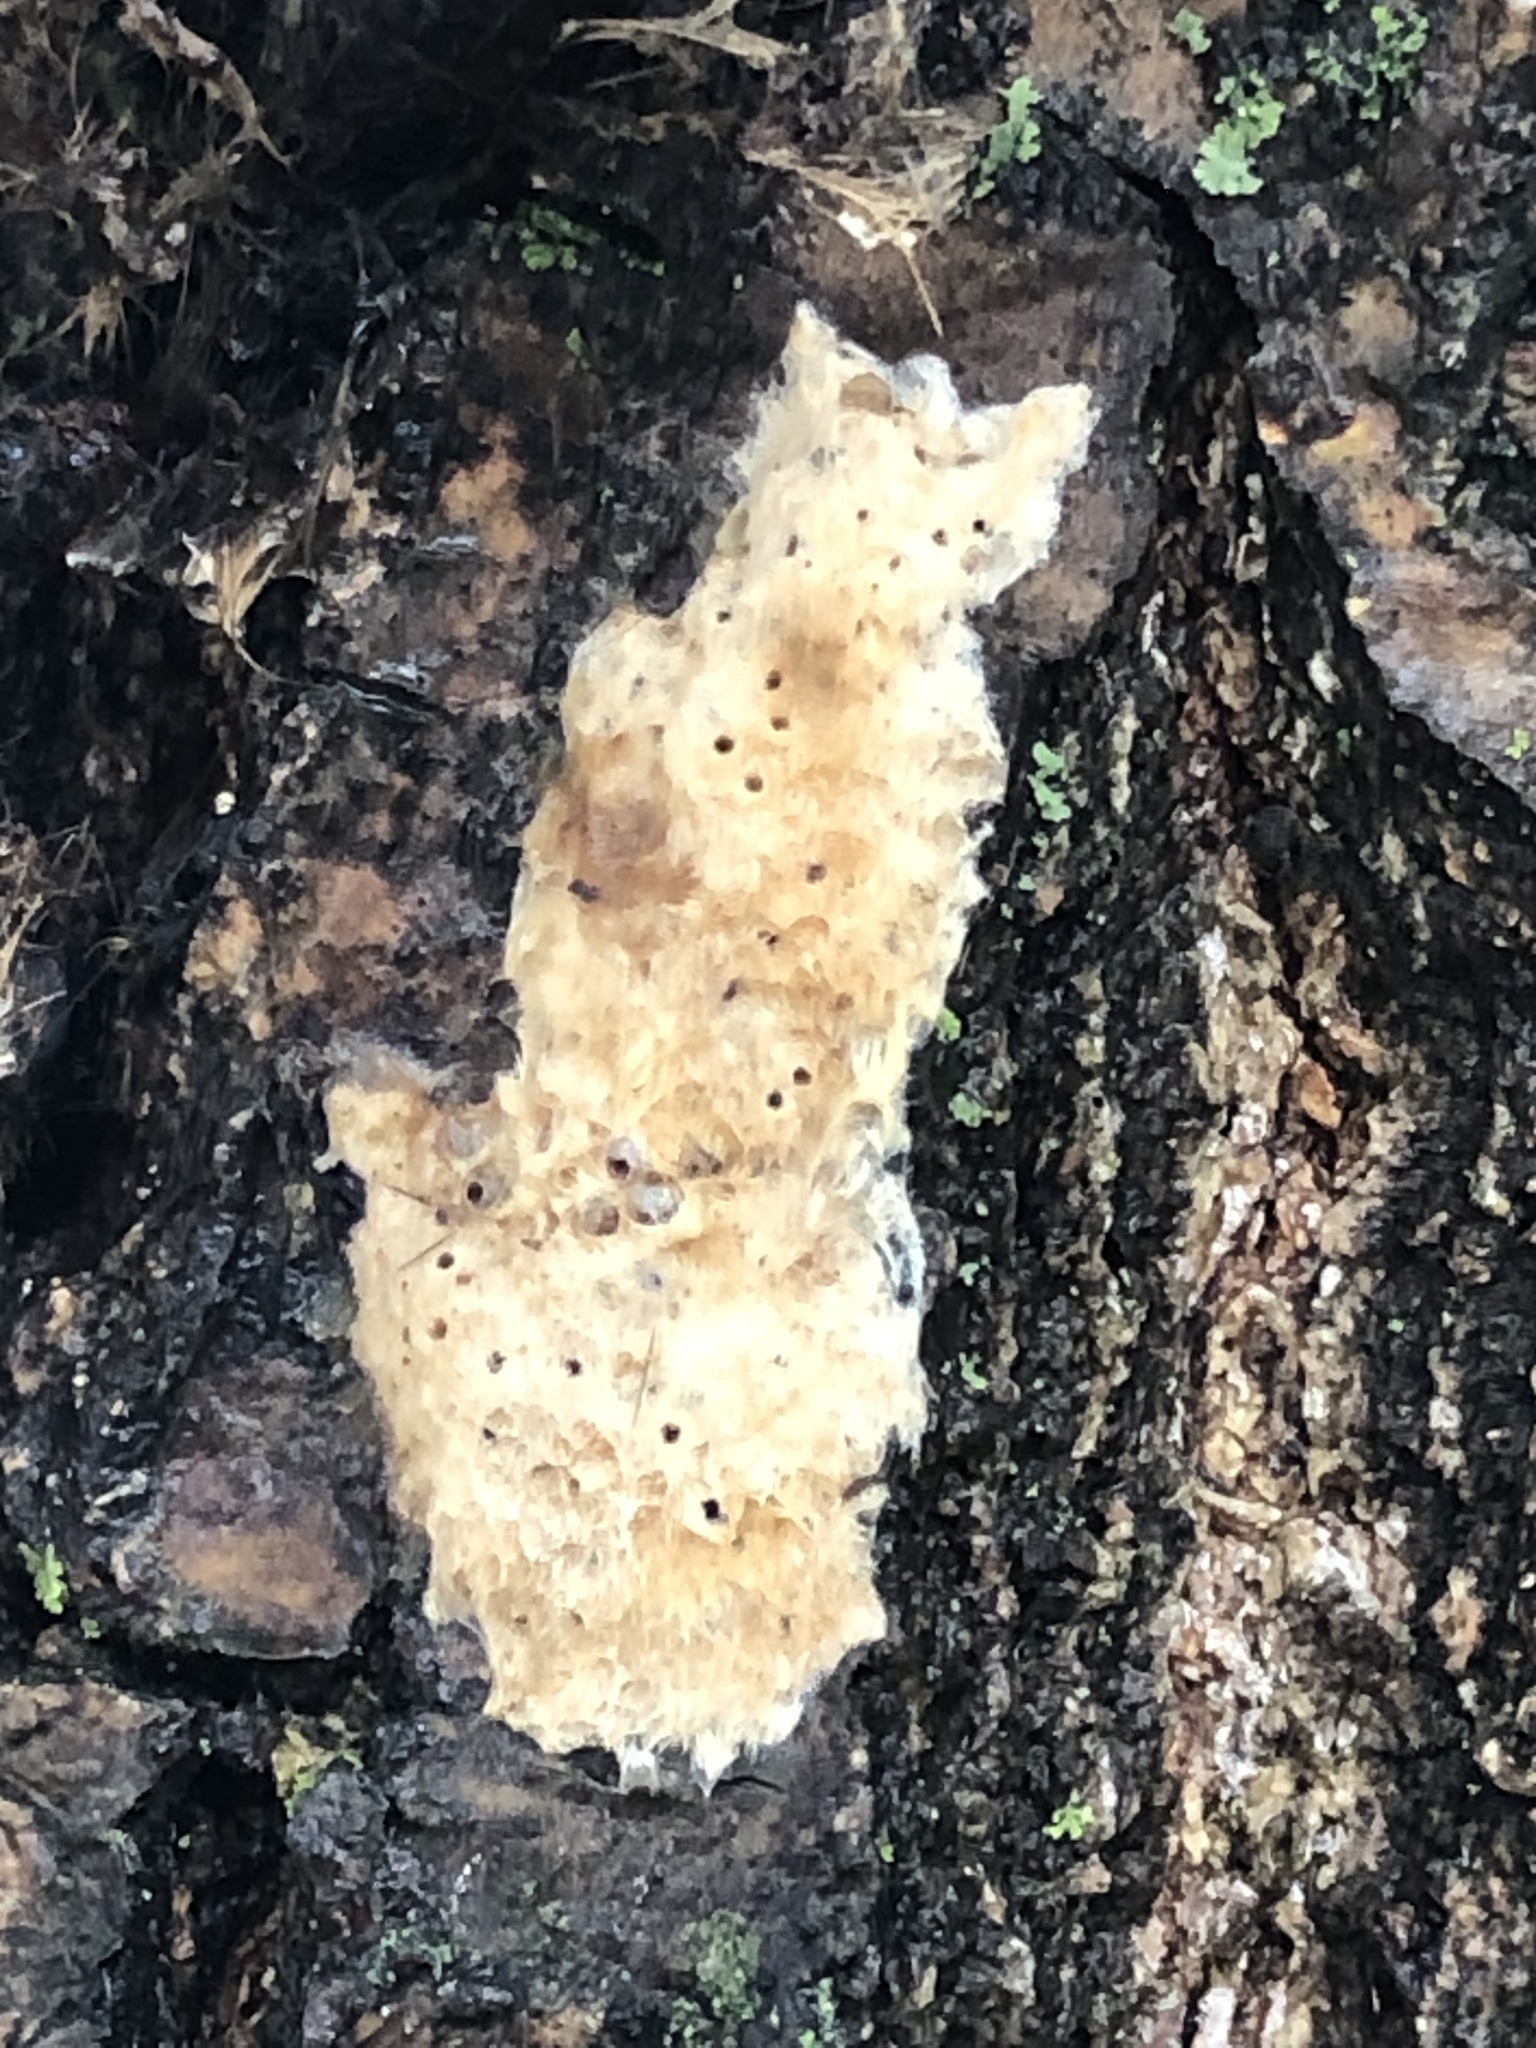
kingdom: Animalia
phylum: Arthropoda
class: Insecta
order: Lepidoptera
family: Erebidae
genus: Lymantria
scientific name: Lymantria dispar
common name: Gypsy moth
